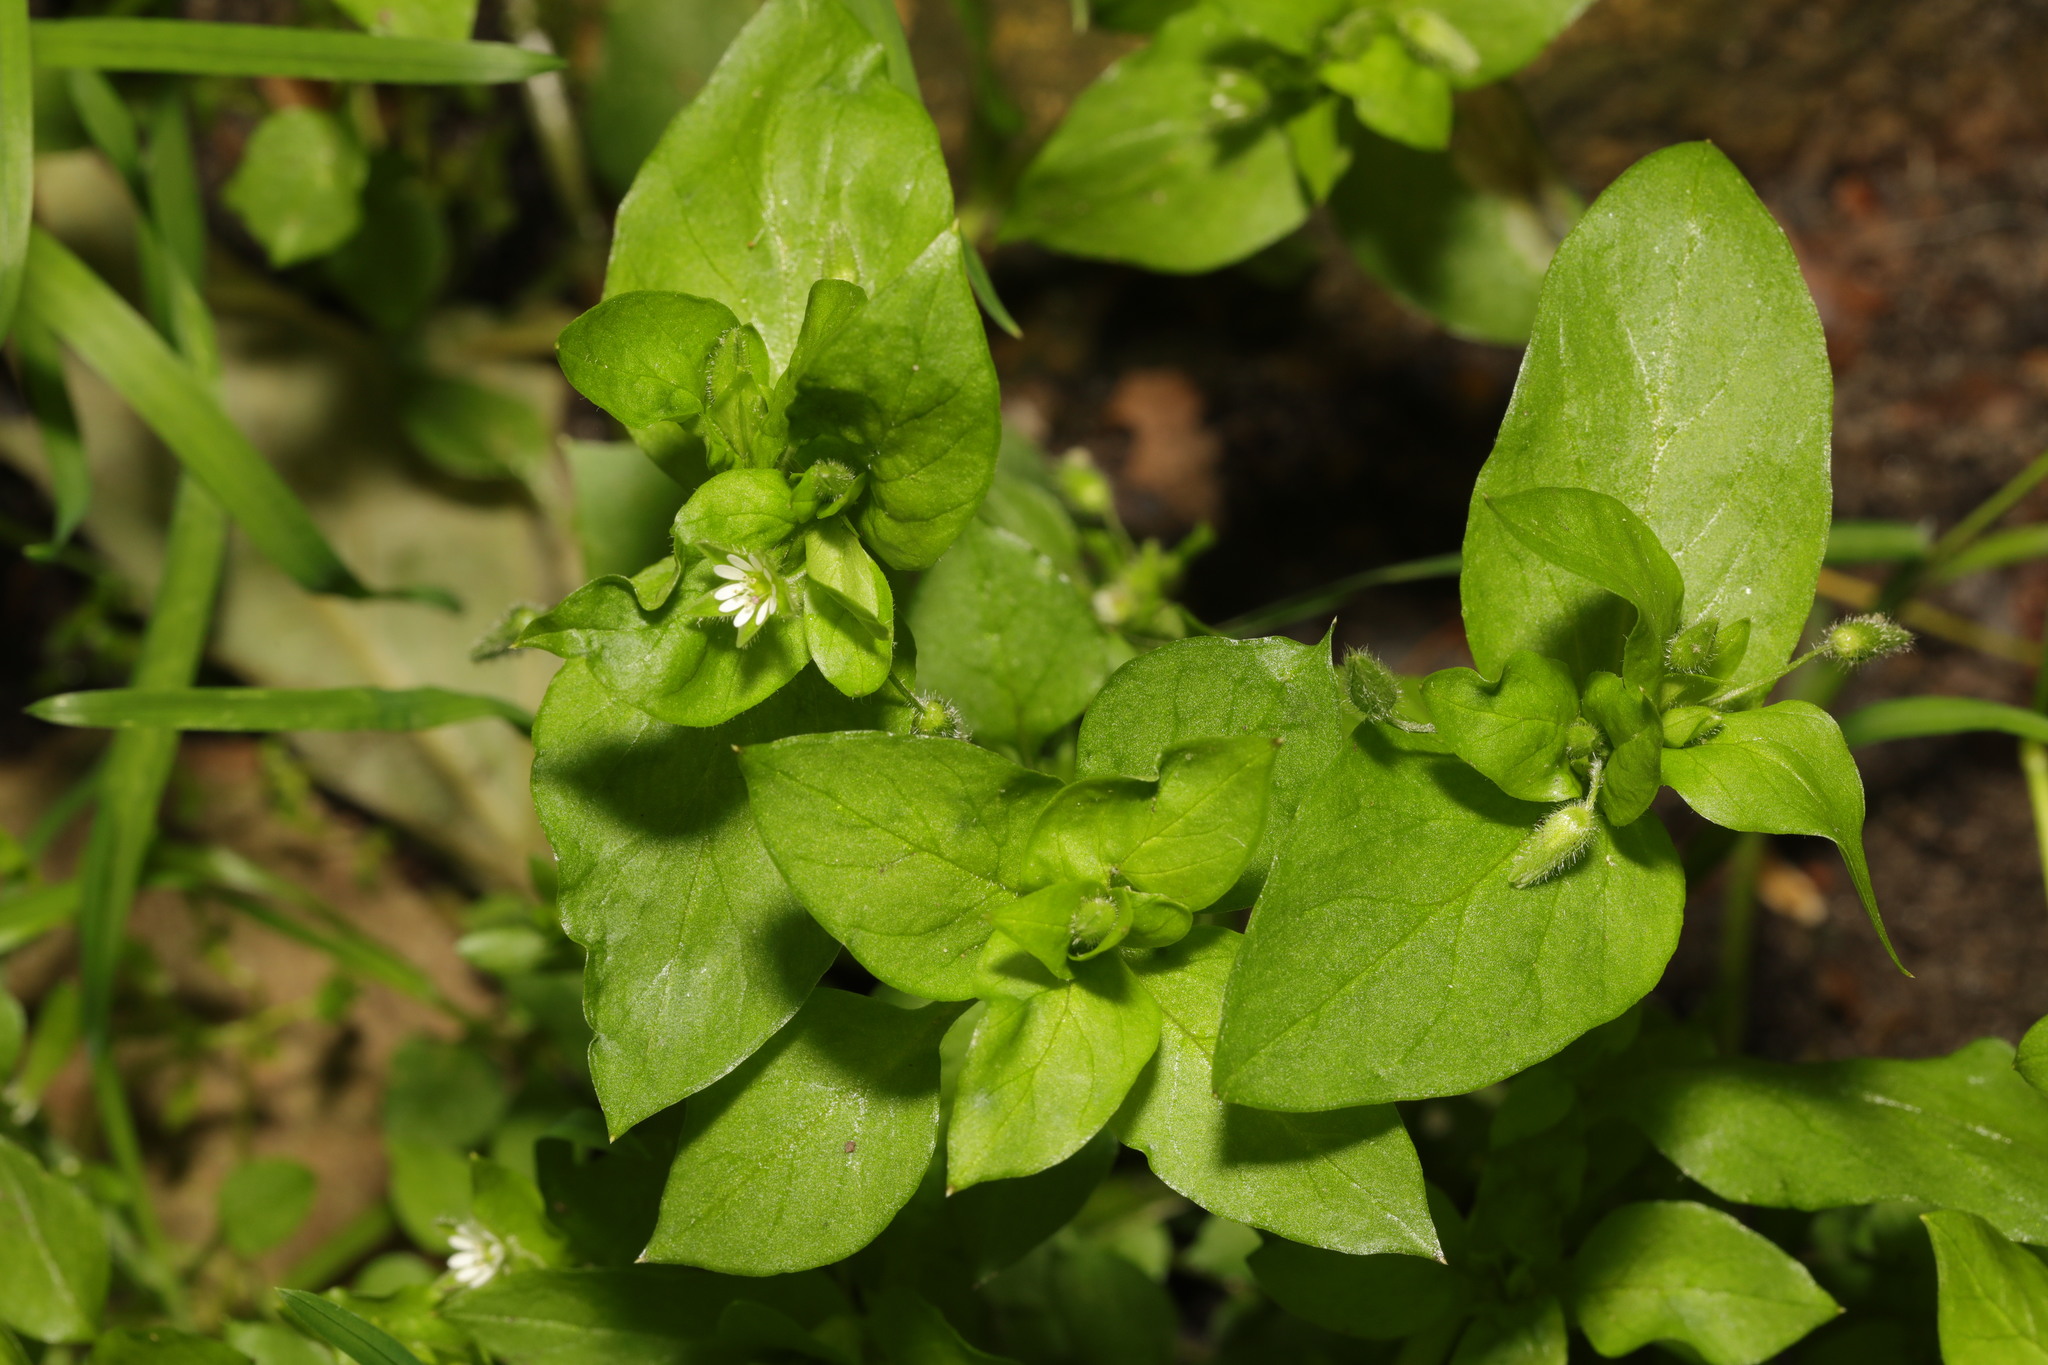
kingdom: Plantae
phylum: Tracheophyta
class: Magnoliopsida
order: Caryophyllales
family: Caryophyllaceae
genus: Stellaria
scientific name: Stellaria media
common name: Common chickweed
